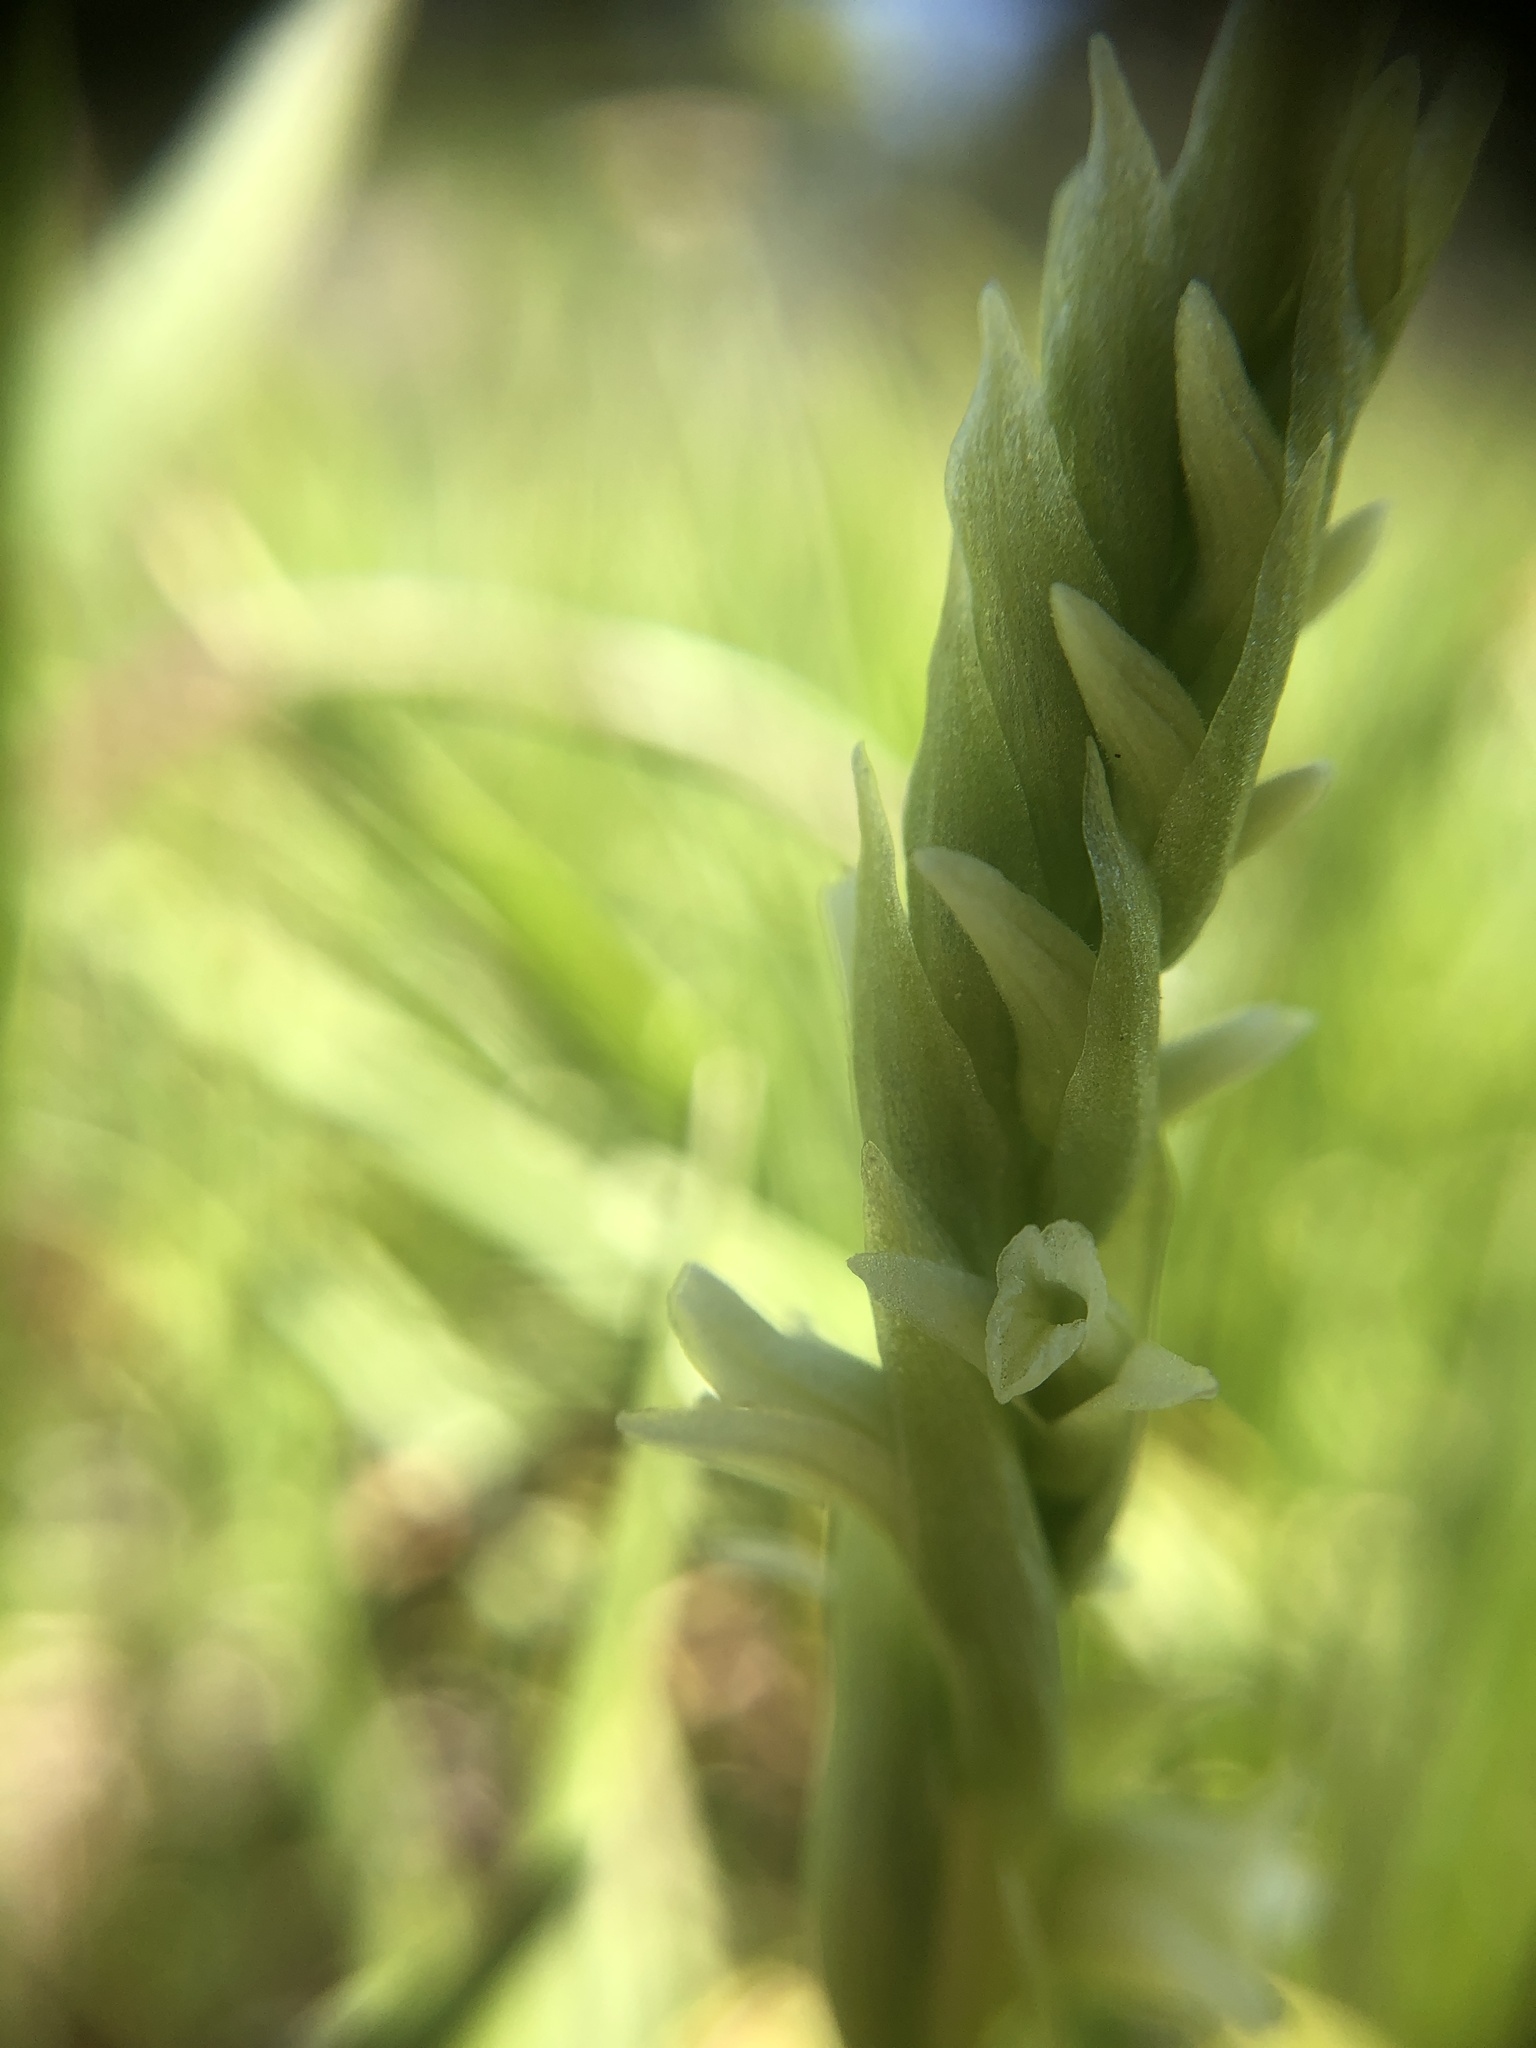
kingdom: Plantae
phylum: Tracheophyta
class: Liliopsida
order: Asparagales
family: Orchidaceae
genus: Spiranthes
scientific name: Spiranthes stellata
